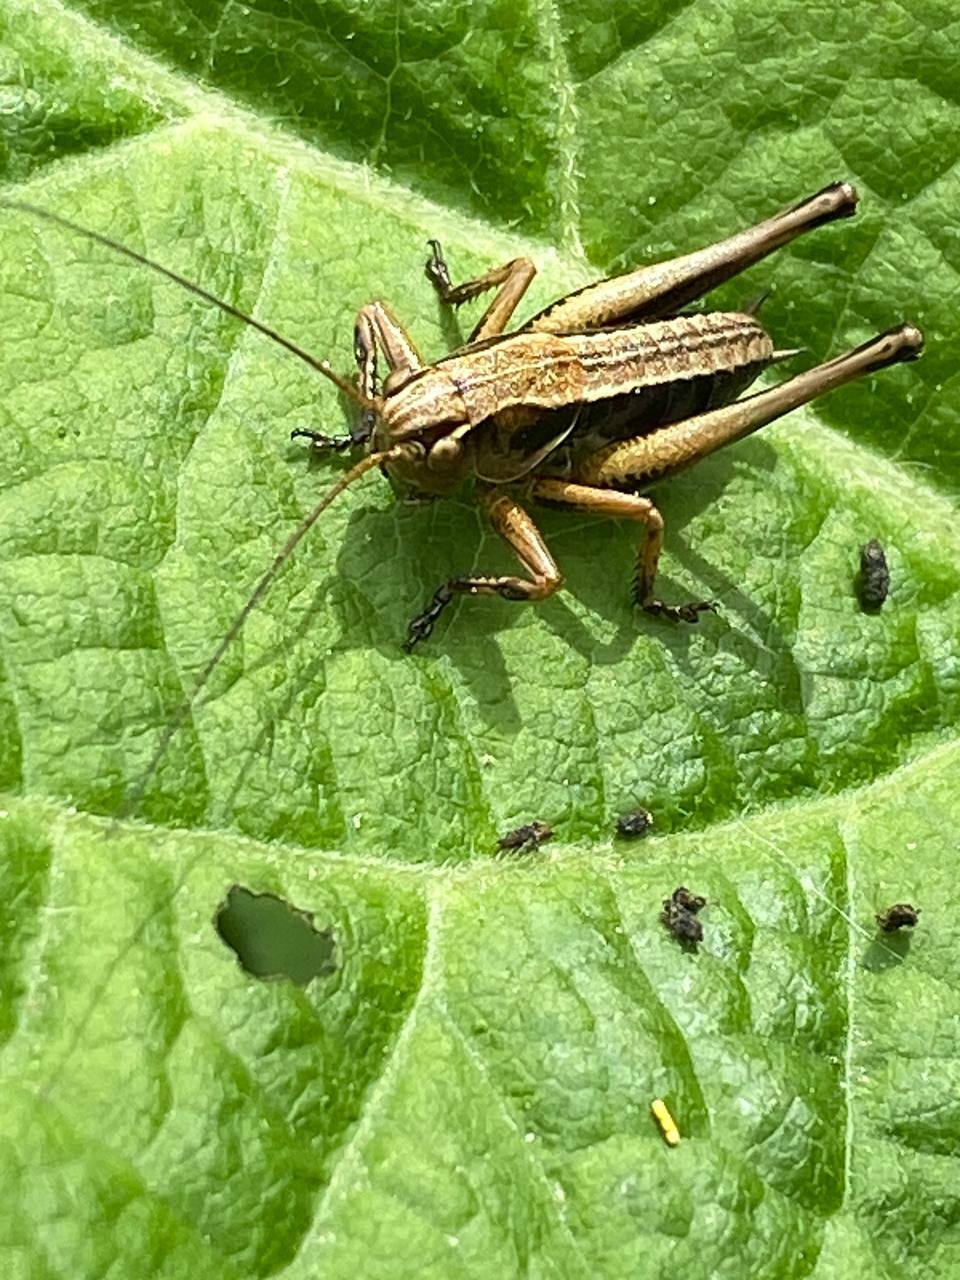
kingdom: Animalia
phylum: Arthropoda
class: Insecta
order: Orthoptera
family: Tettigoniidae
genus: Pholidoptera
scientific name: Pholidoptera griseoaptera
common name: Dark bush-cricket
